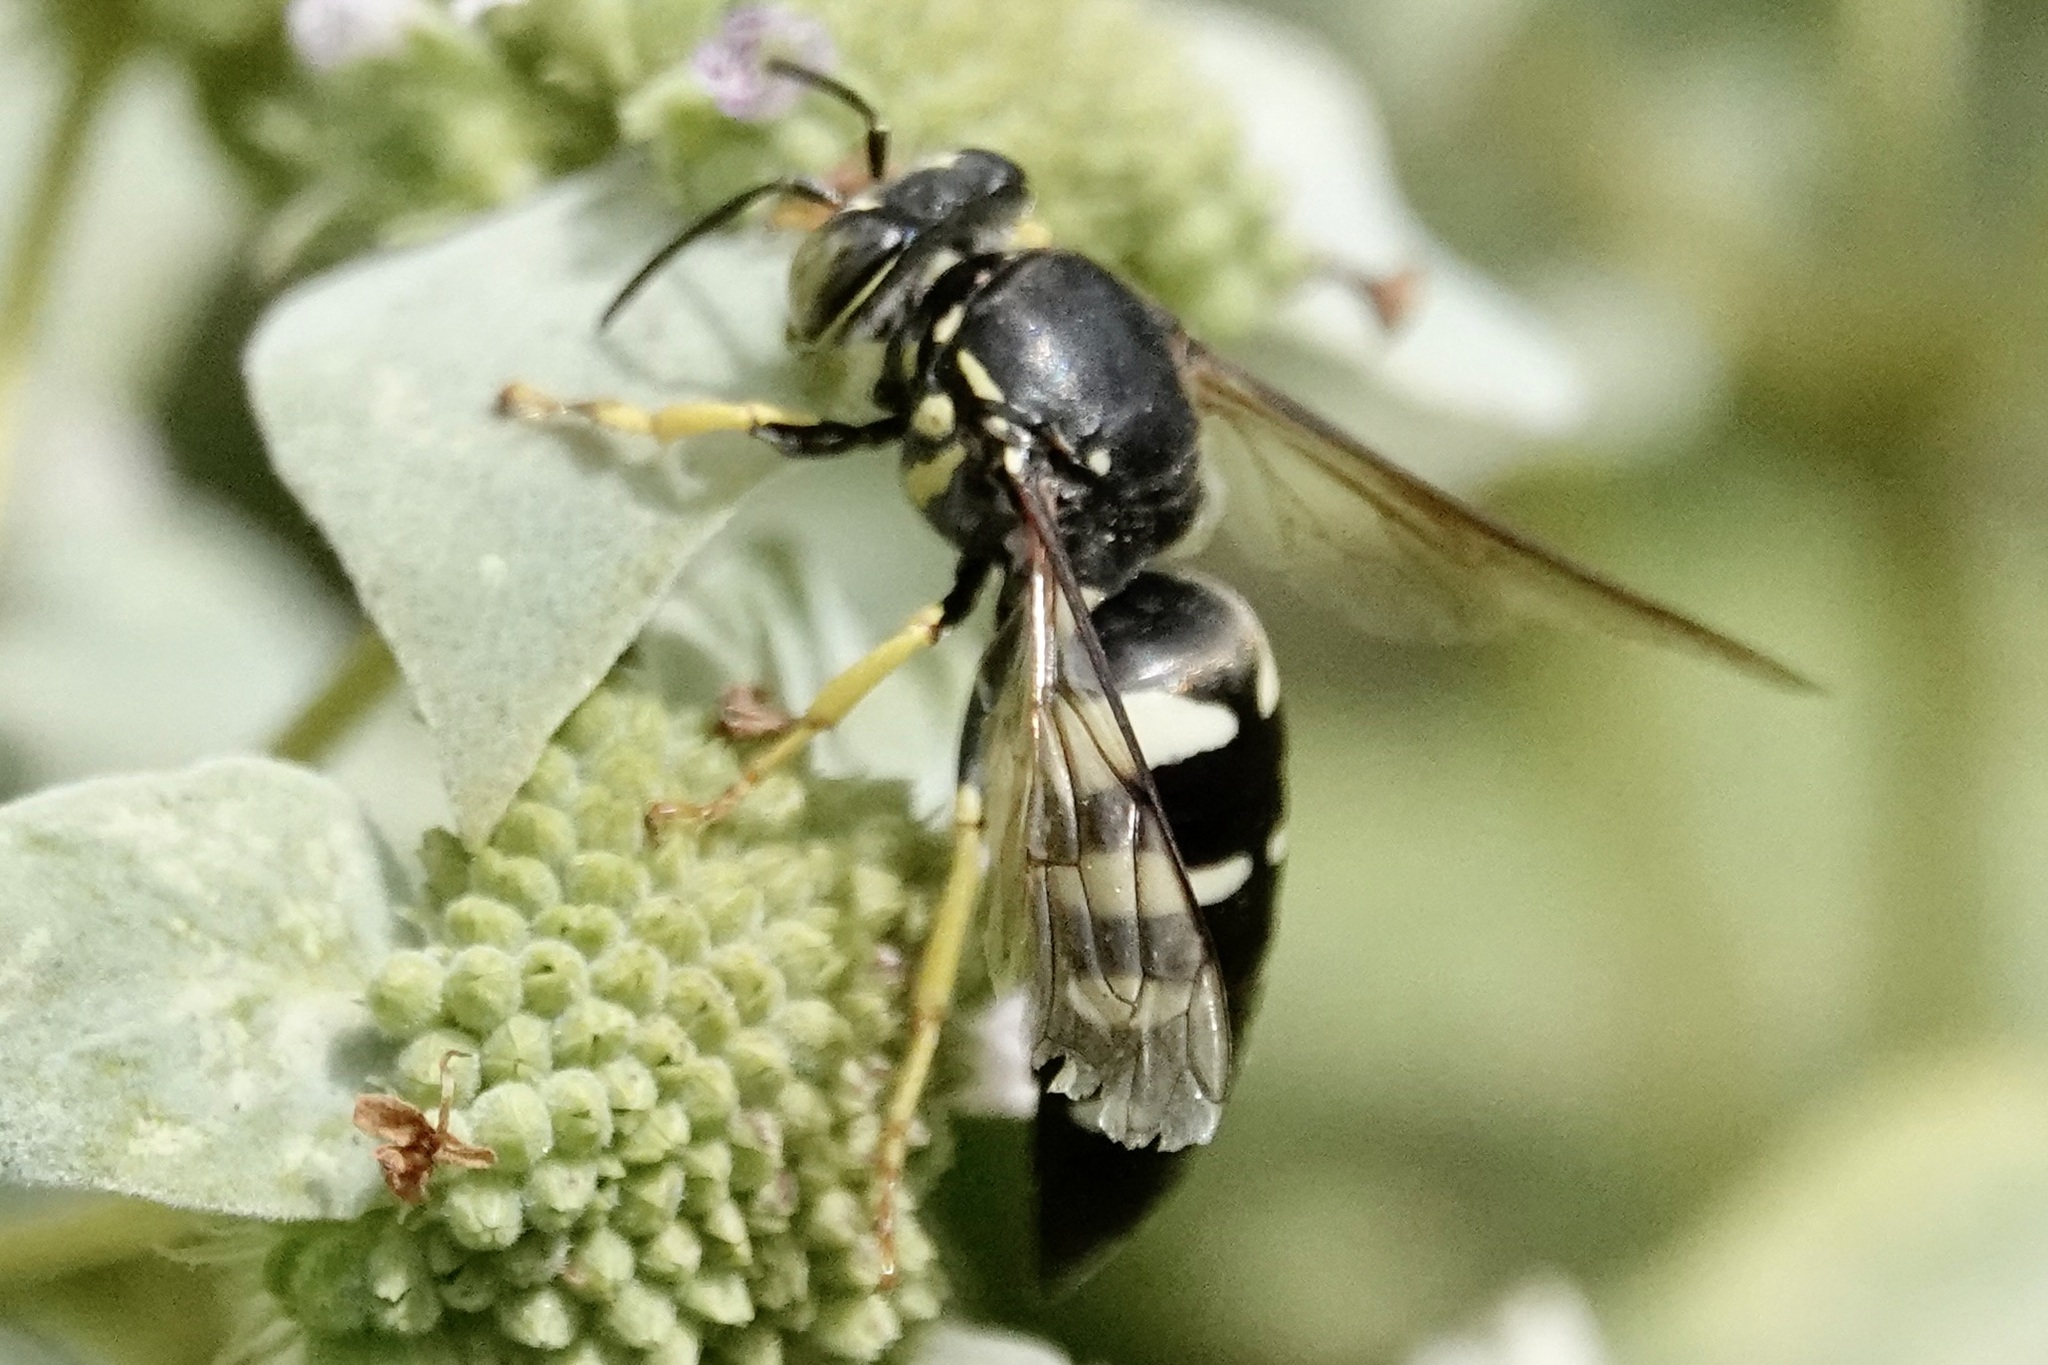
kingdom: Animalia
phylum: Arthropoda
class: Insecta
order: Hymenoptera
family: Crabronidae
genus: Bicyrtes
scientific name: Bicyrtes quadrifasciatus
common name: Four-banded stink bug hunter wasp
